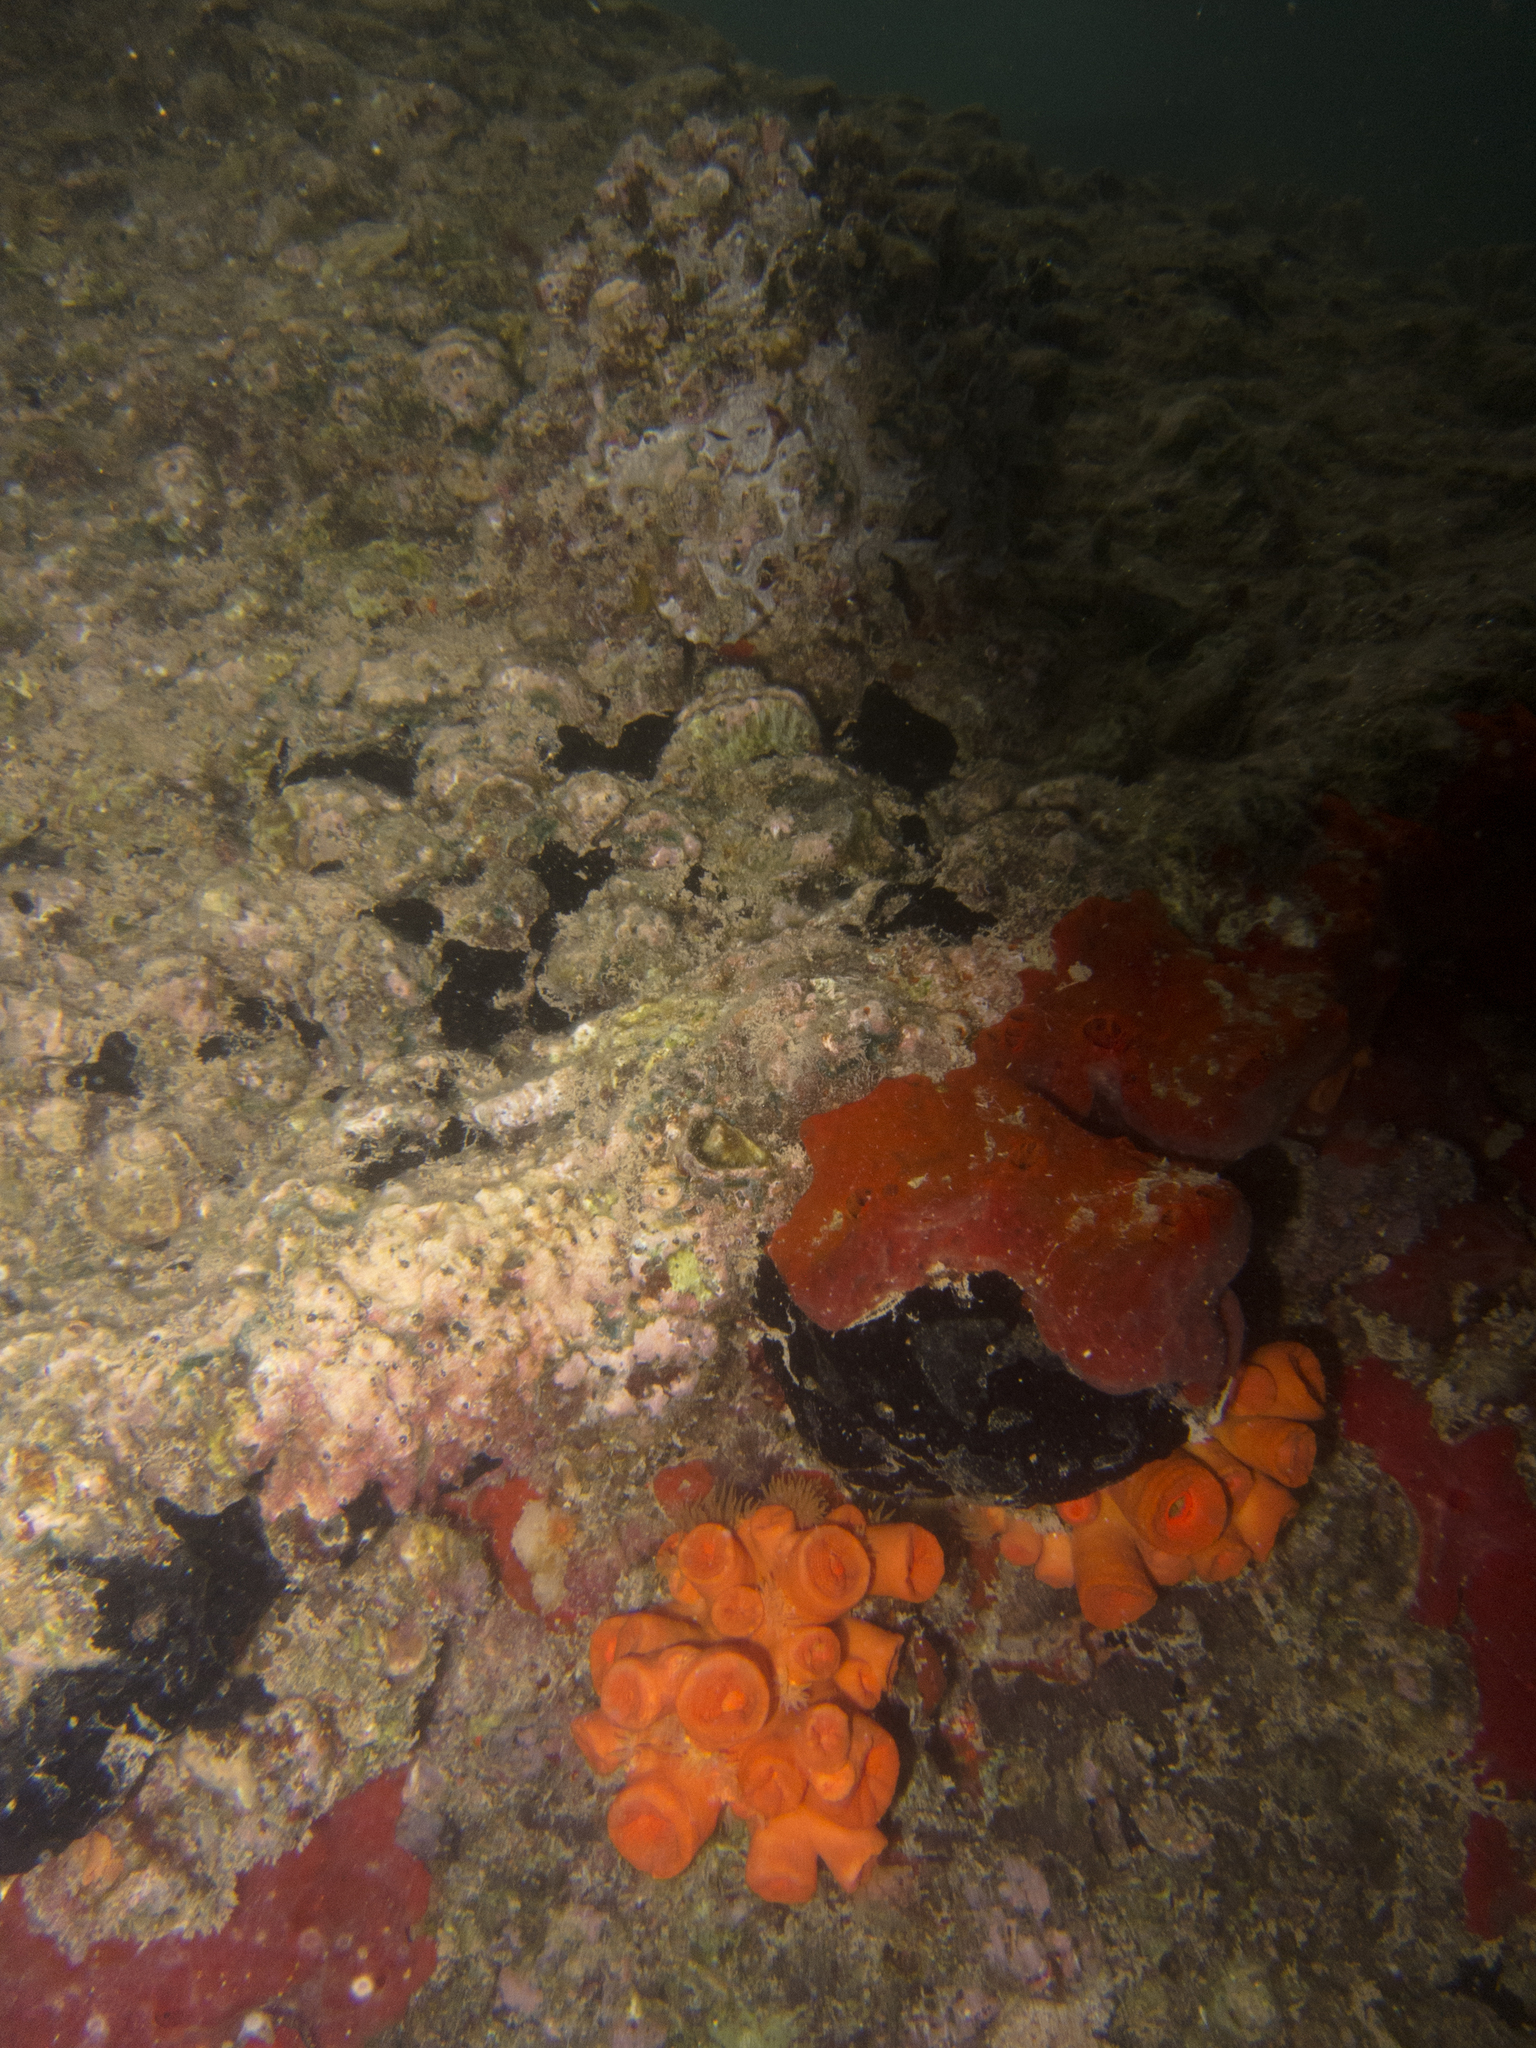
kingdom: Animalia
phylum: Cnidaria
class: Anthozoa
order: Scleractinia
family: Dendrophylliidae
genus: Tubastraea
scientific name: Tubastraea coccinea
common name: Orange cup coral
